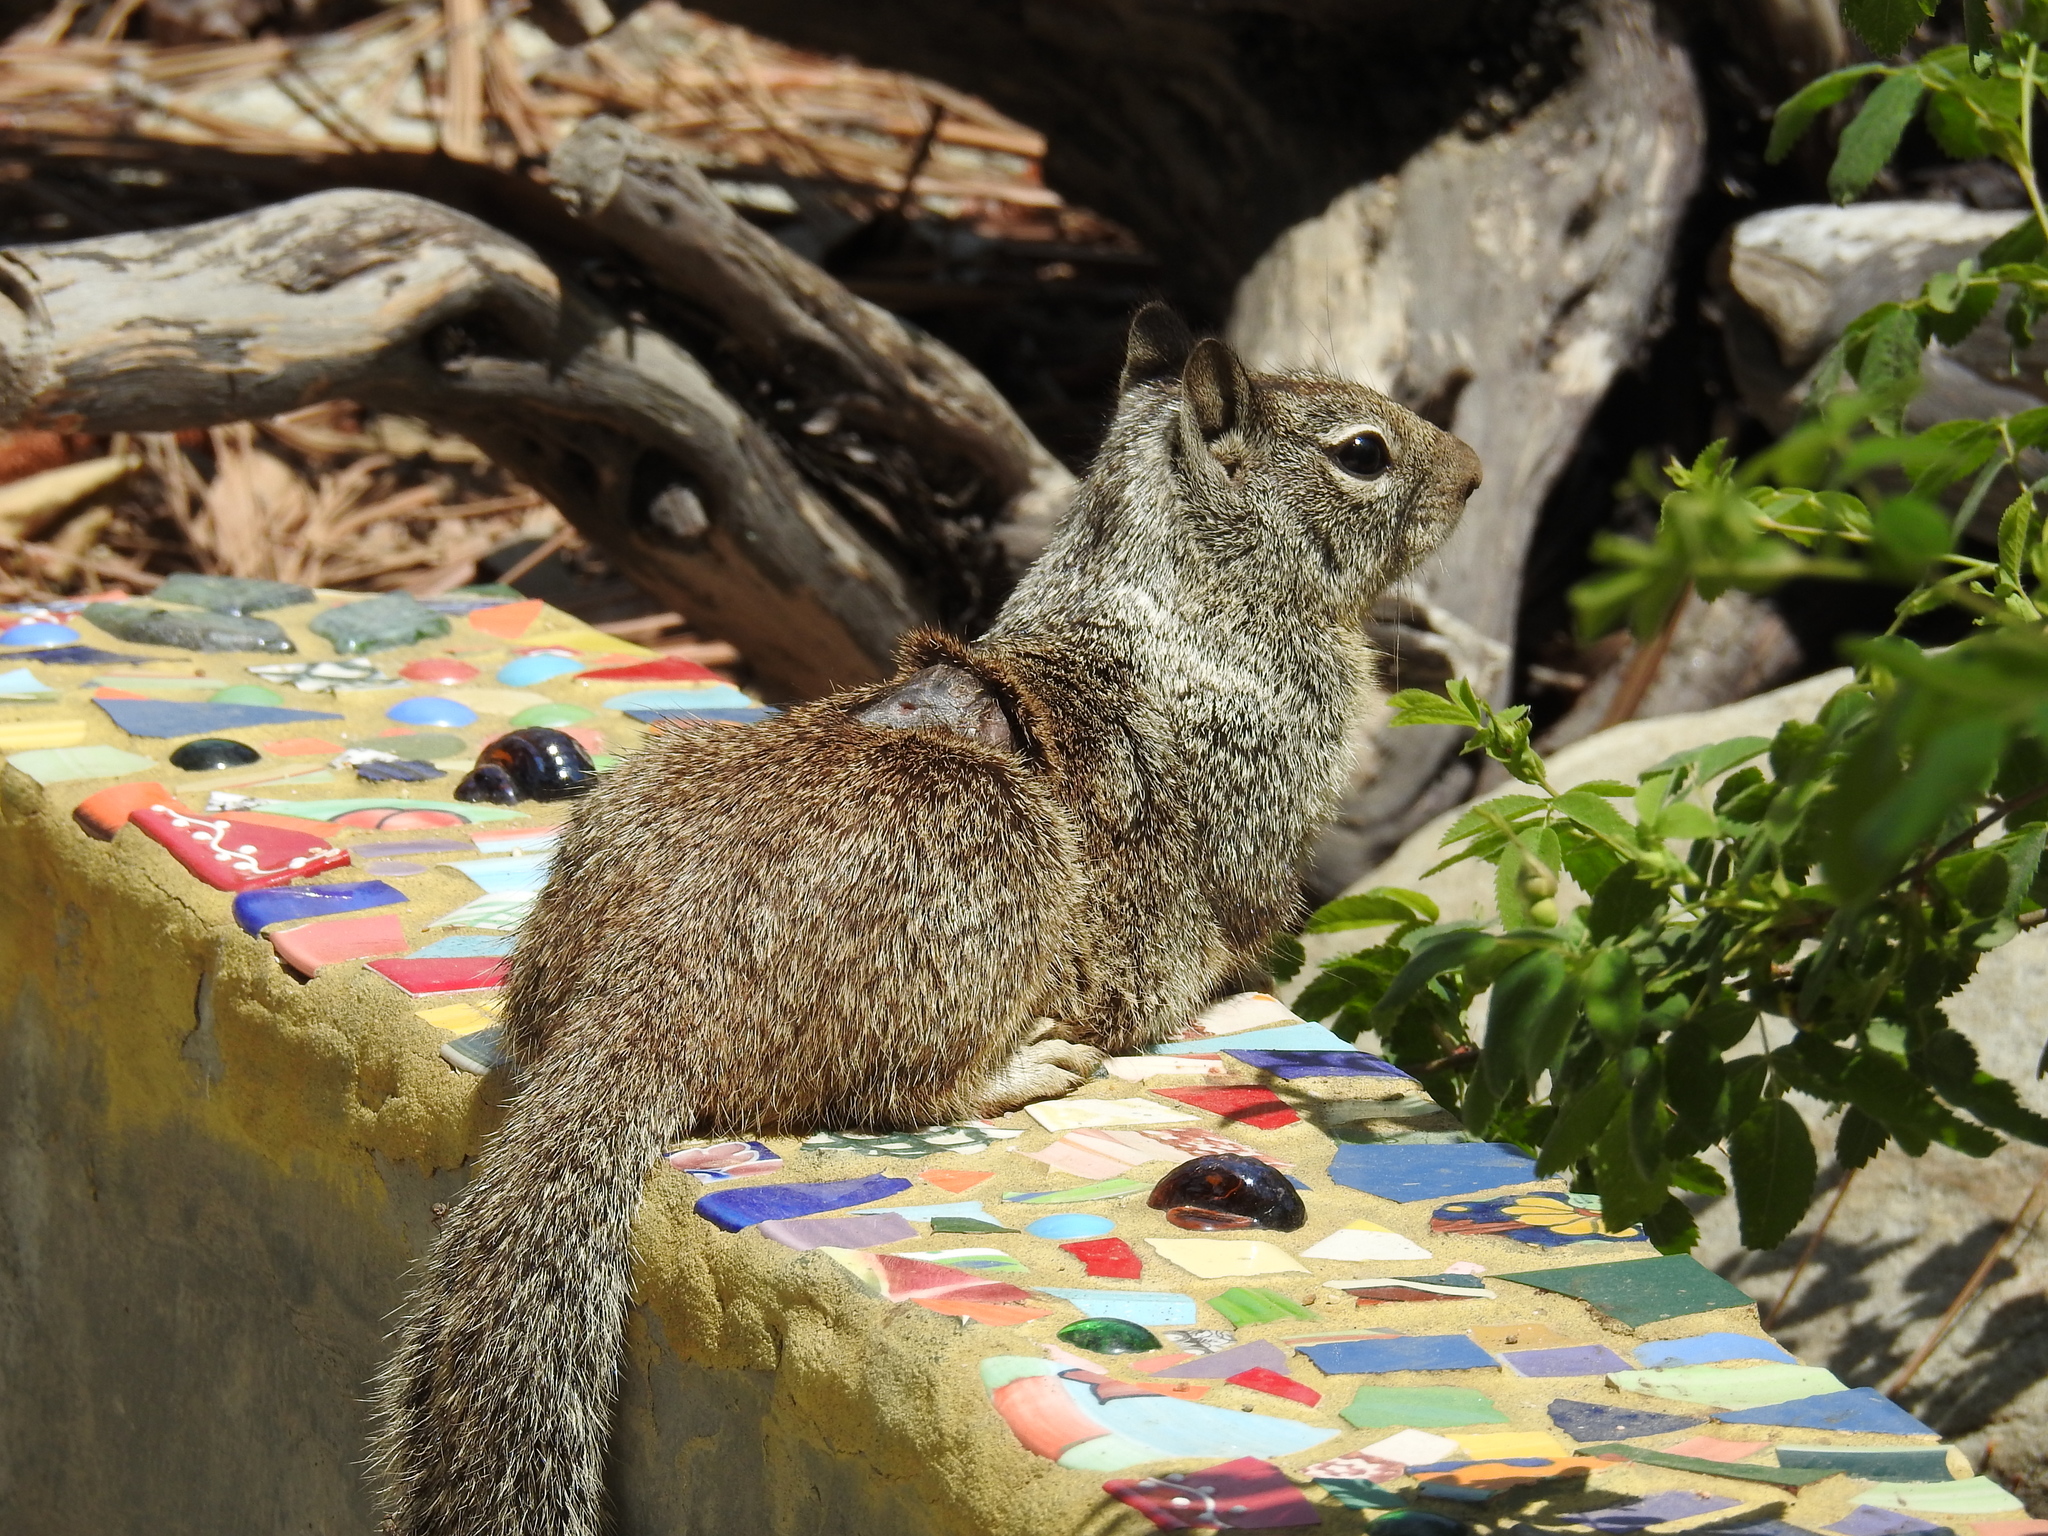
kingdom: Animalia
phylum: Chordata
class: Mammalia
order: Rodentia
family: Sciuridae
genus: Otospermophilus
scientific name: Otospermophilus beecheyi
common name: California ground squirrel
